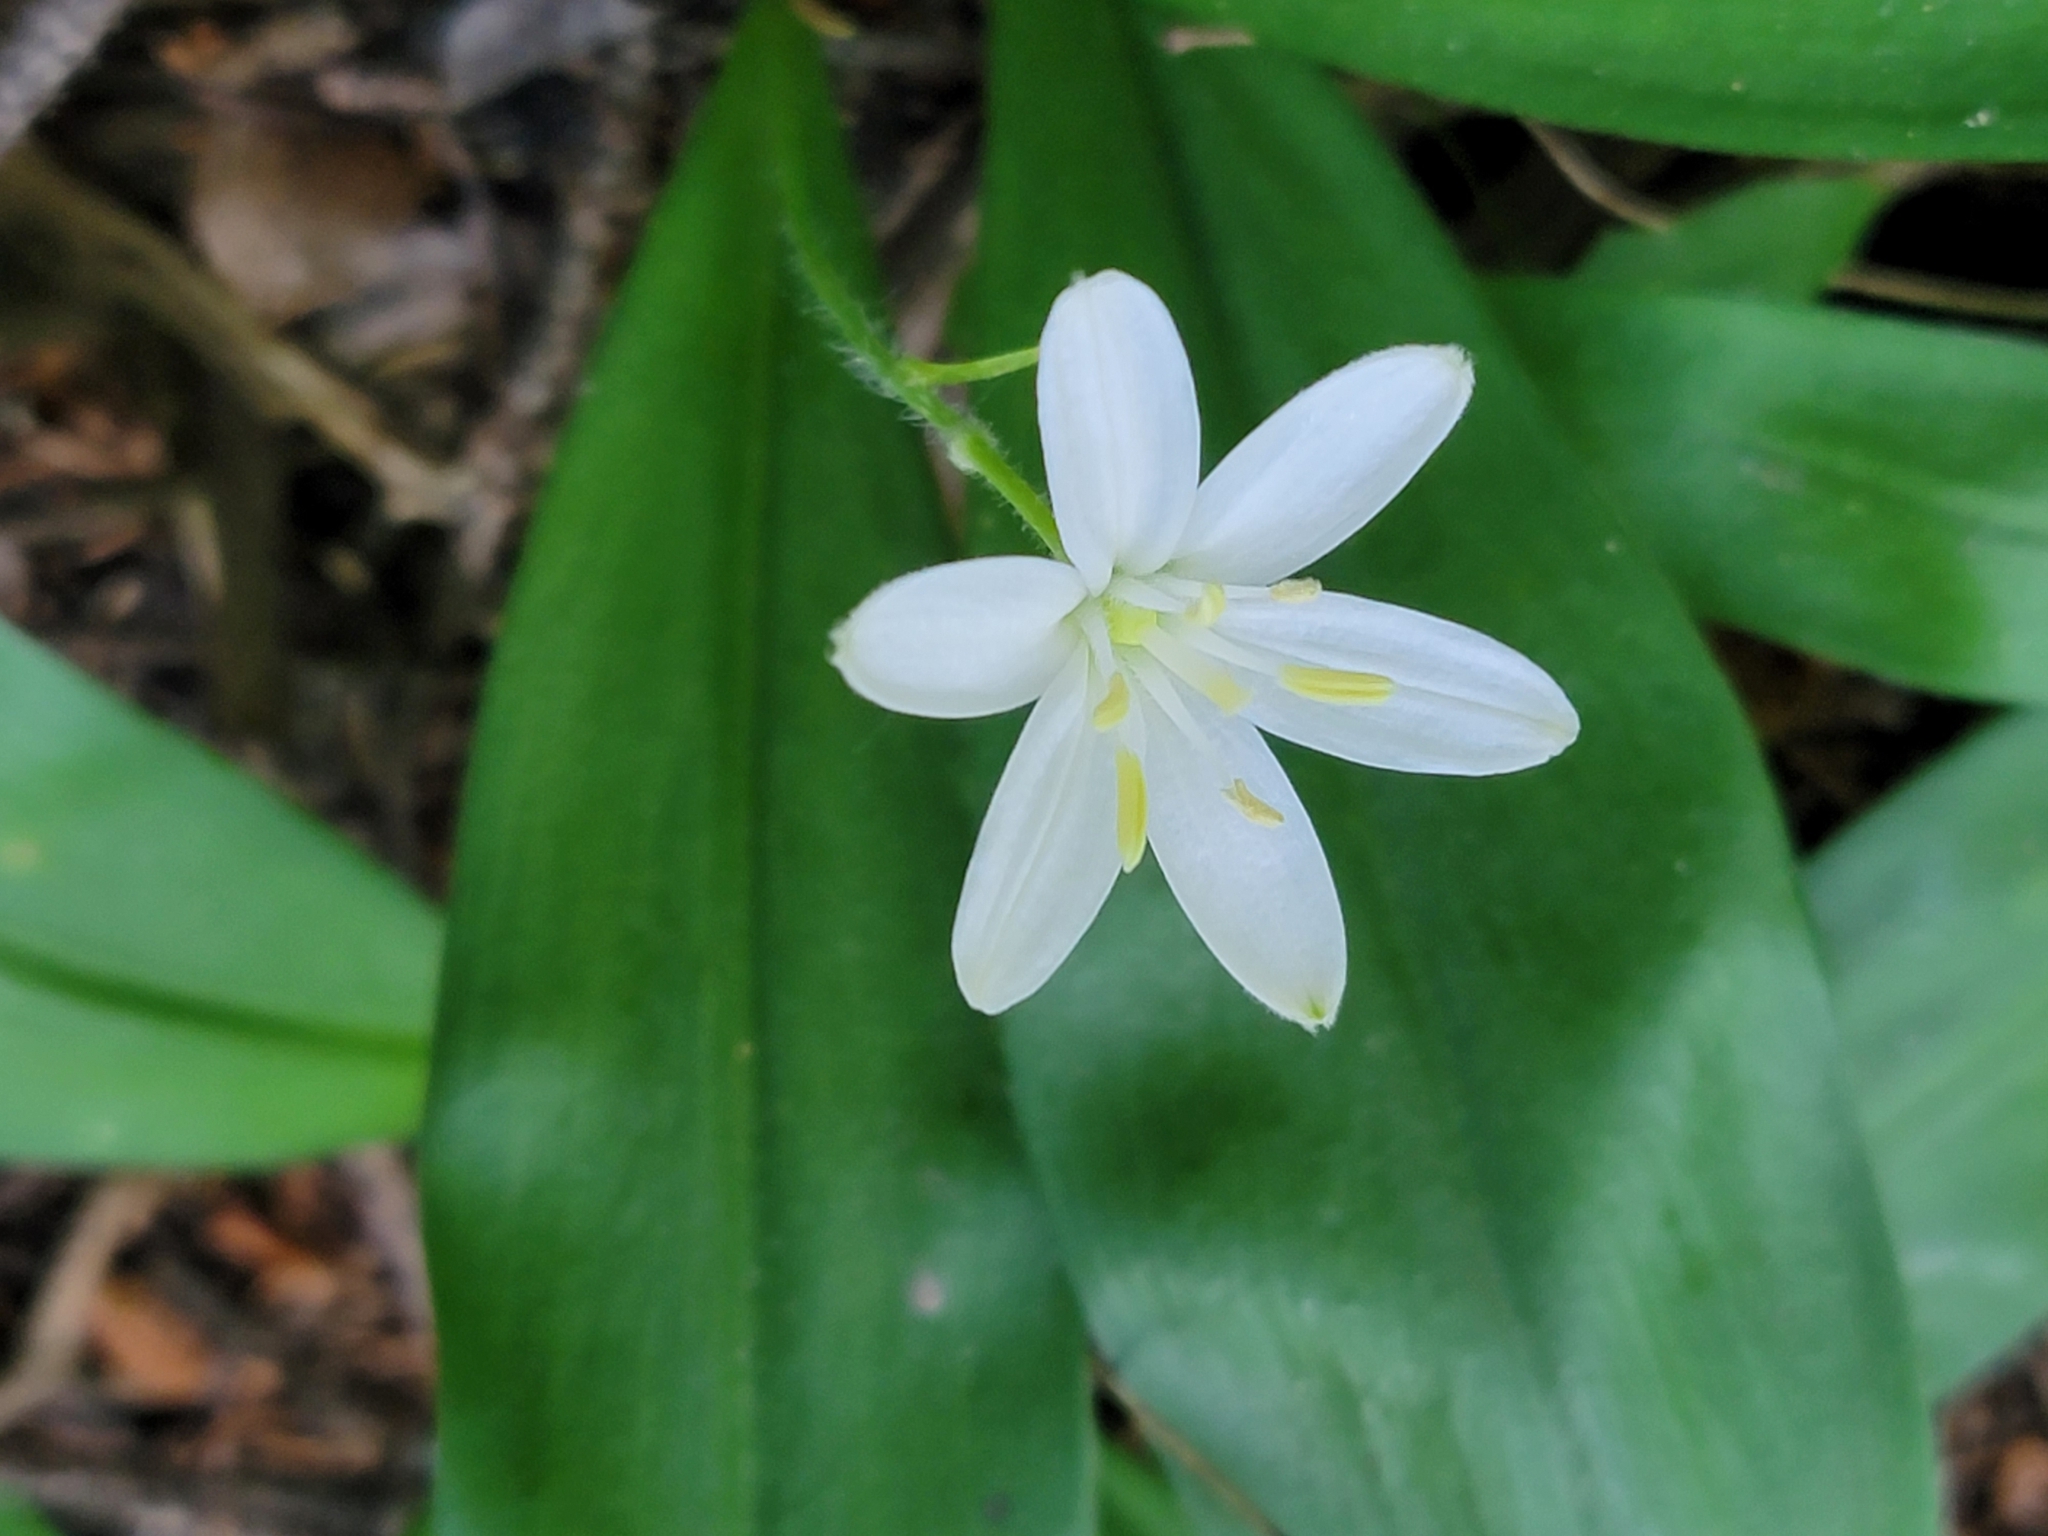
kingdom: Plantae
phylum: Tracheophyta
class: Liliopsida
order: Liliales
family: Liliaceae
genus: Clintonia
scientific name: Clintonia uniflora
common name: Queen's cup
